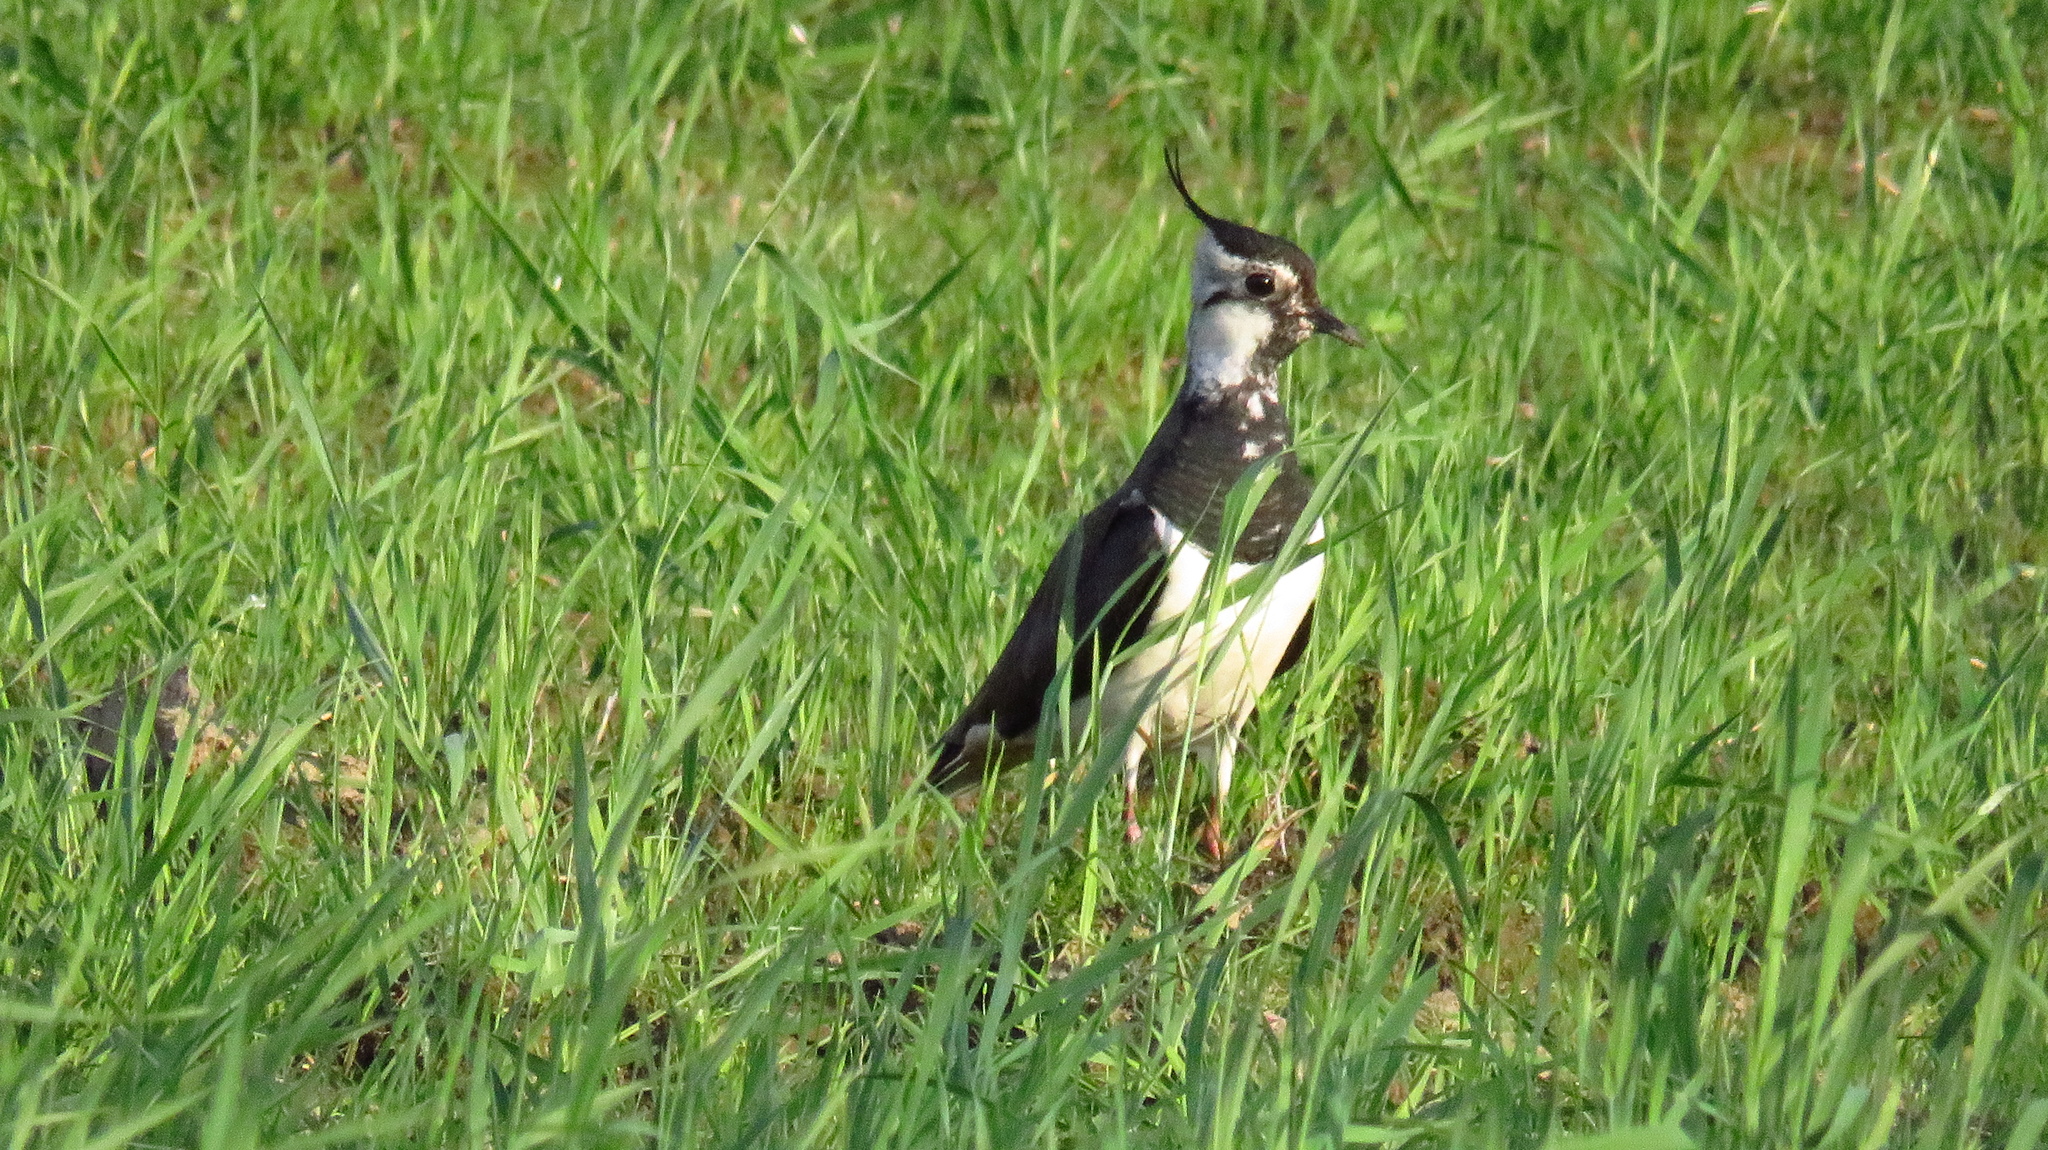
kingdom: Animalia
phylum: Chordata
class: Aves
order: Charadriiformes
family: Charadriidae
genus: Vanellus
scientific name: Vanellus vanellus
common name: Northern lapwing
